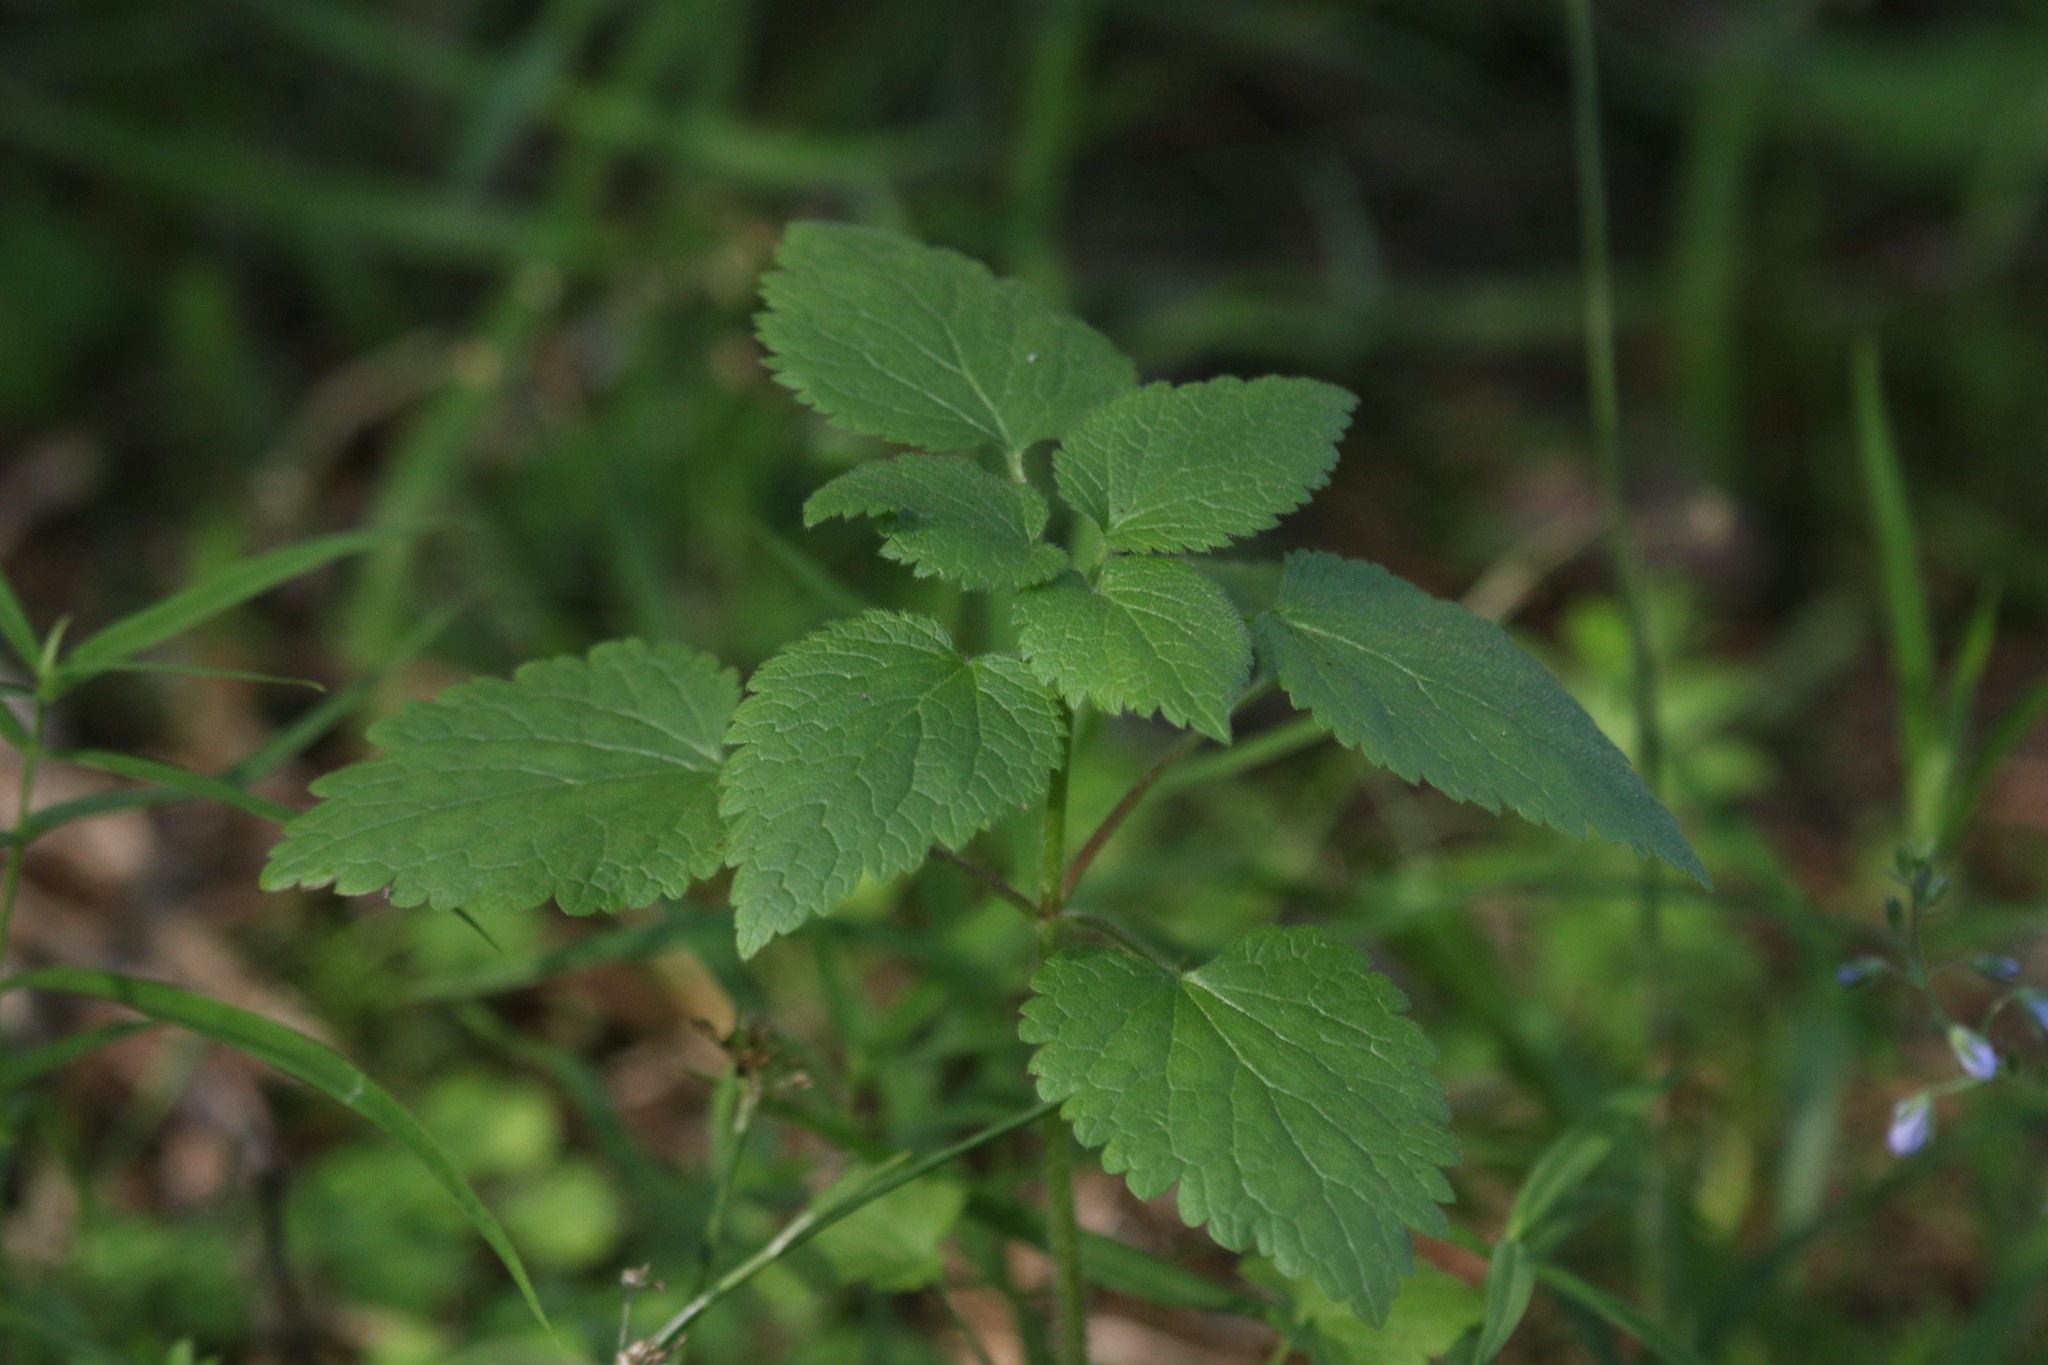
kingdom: Plantae
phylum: Tracheophyta
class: Magnoliopsida
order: Lamiales
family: Lamiaceae
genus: Stachys
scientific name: Stachys sylvatica
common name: Hedge woundwort
